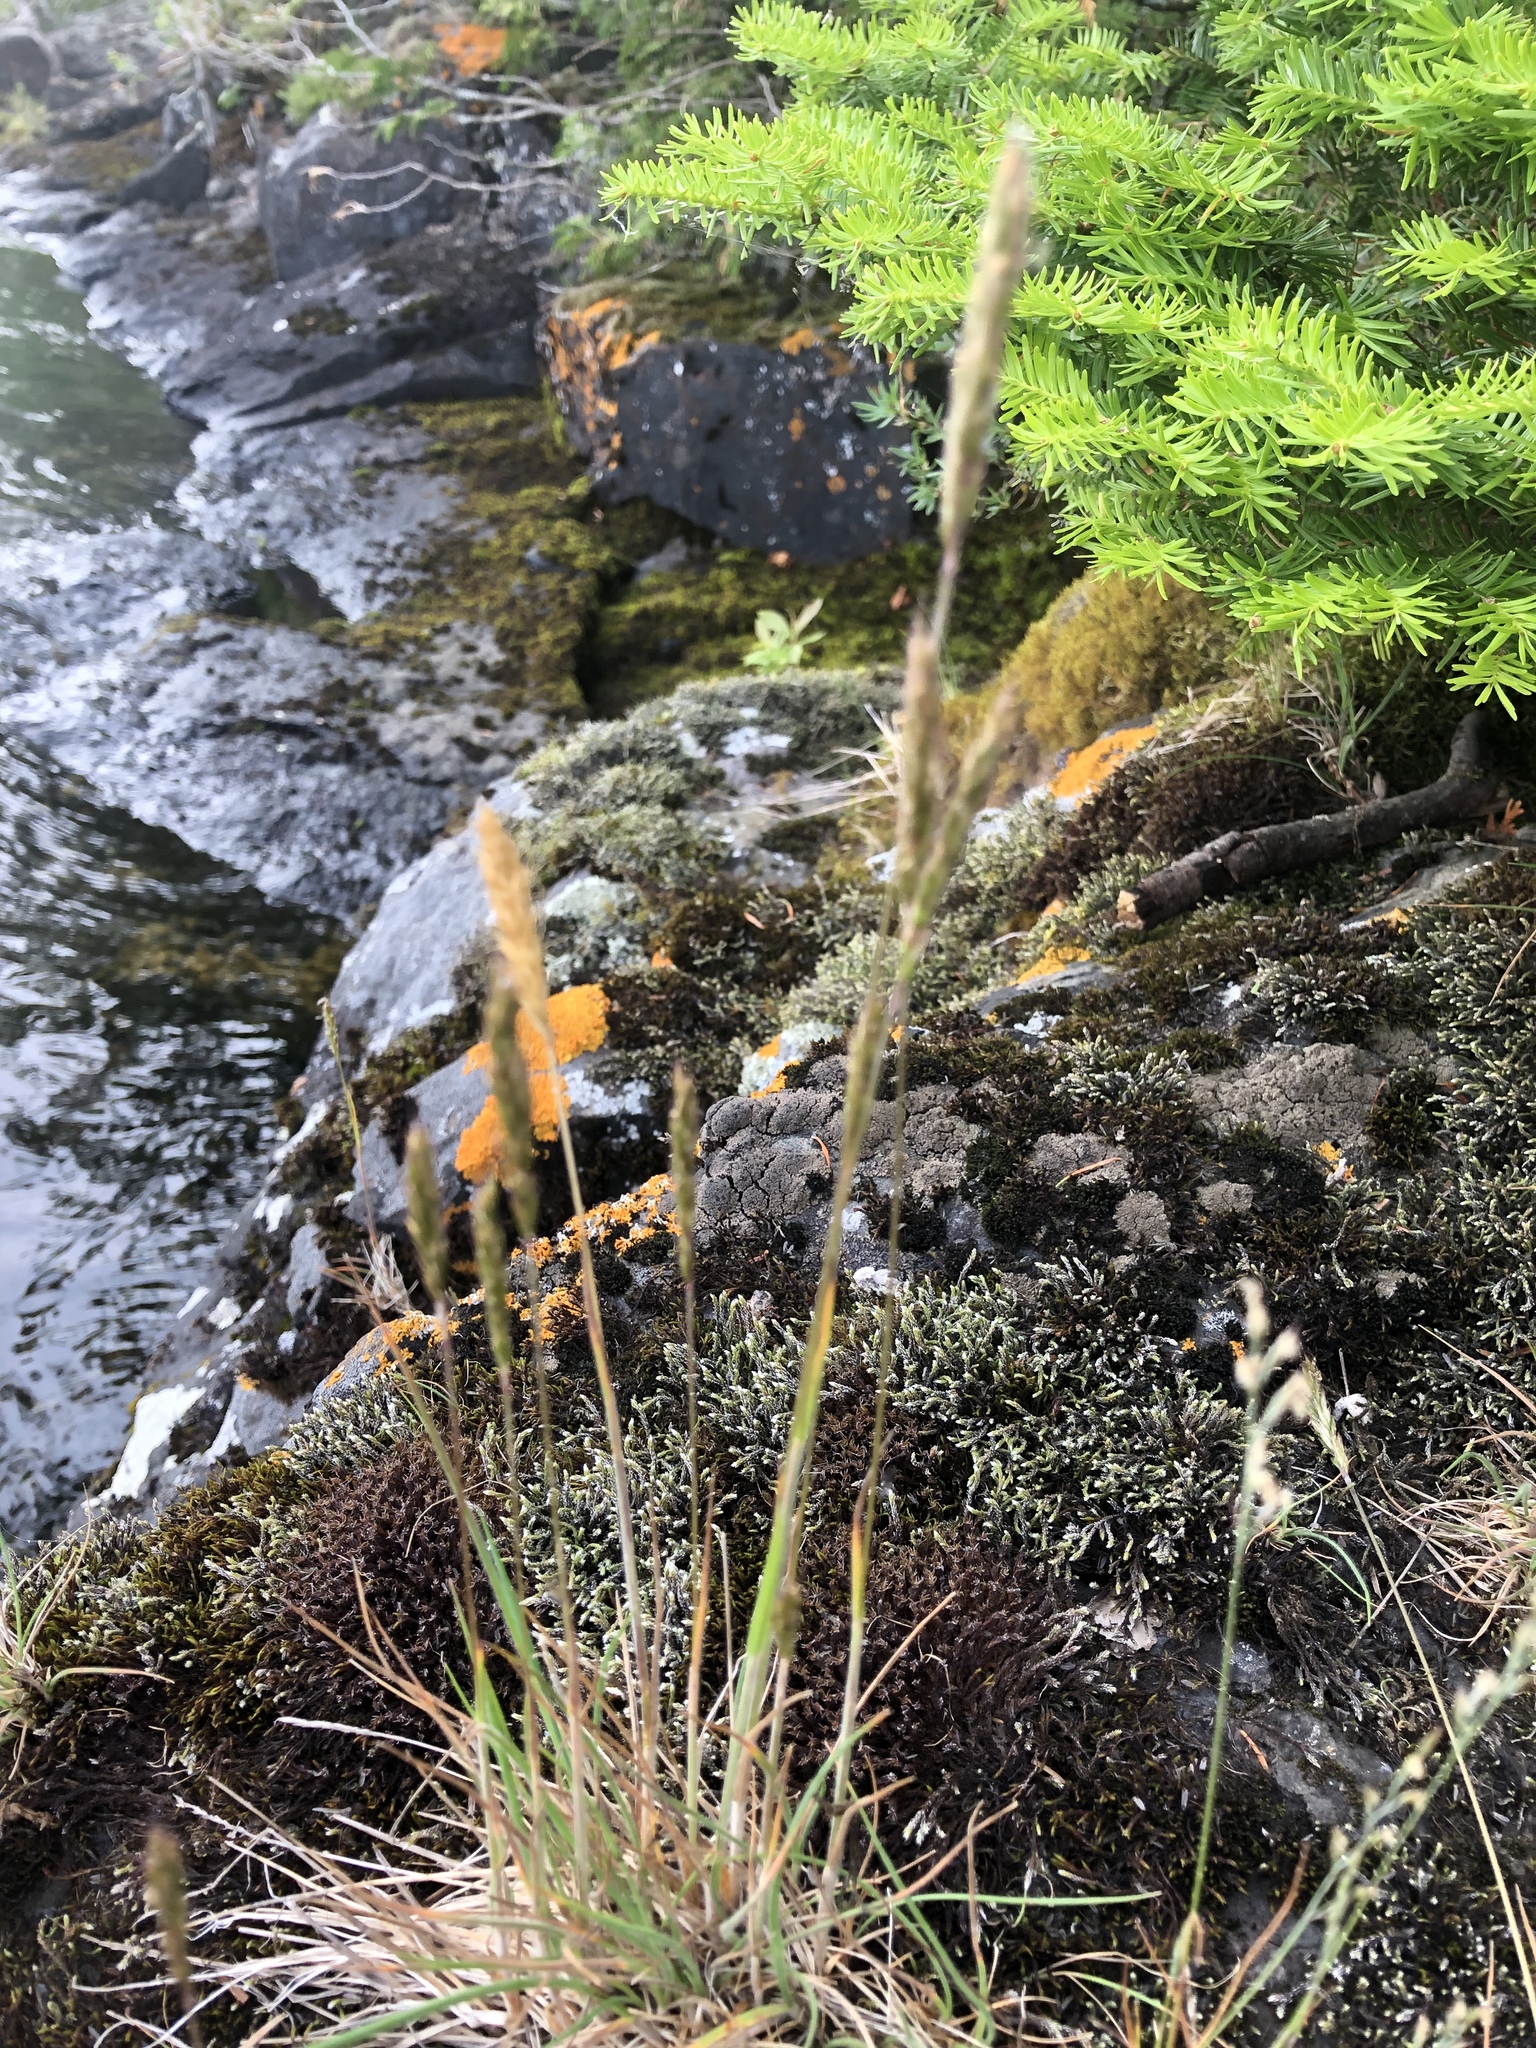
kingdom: Plantae
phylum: Tracheophyta
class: Liliopsida
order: Poales
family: Poaceae
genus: Koeleria
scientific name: Koeleria spicata
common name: Mountain trisetum
